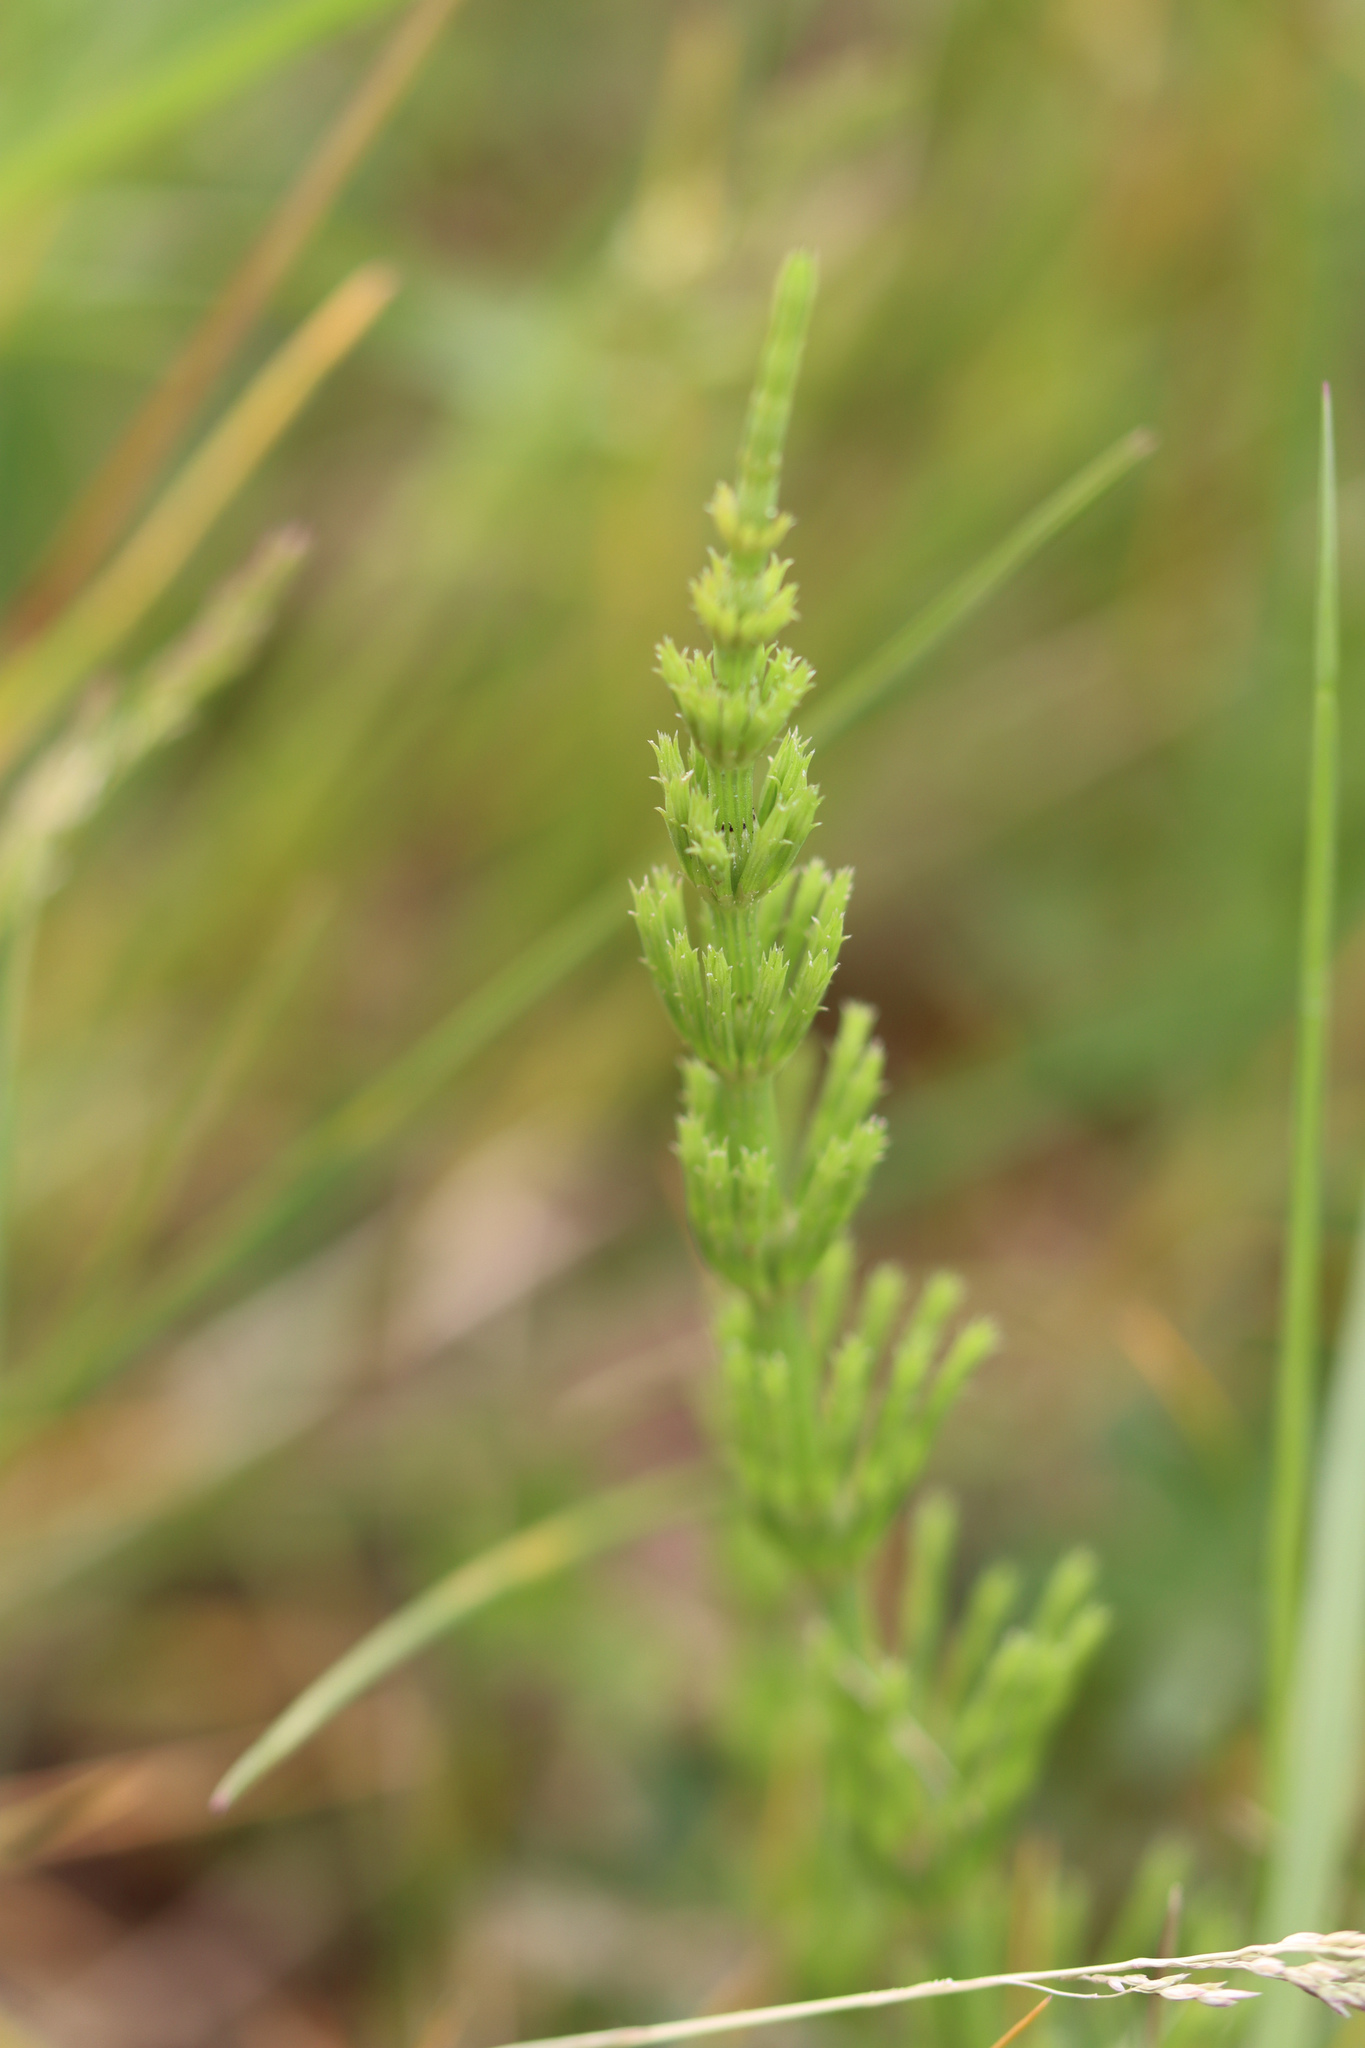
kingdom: Plantae
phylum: Tracheophyta
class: Polypodiopsida
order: Equisetales
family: Equisetaceae
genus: Equisetum
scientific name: Equisetum arvense
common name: Field horsetail
